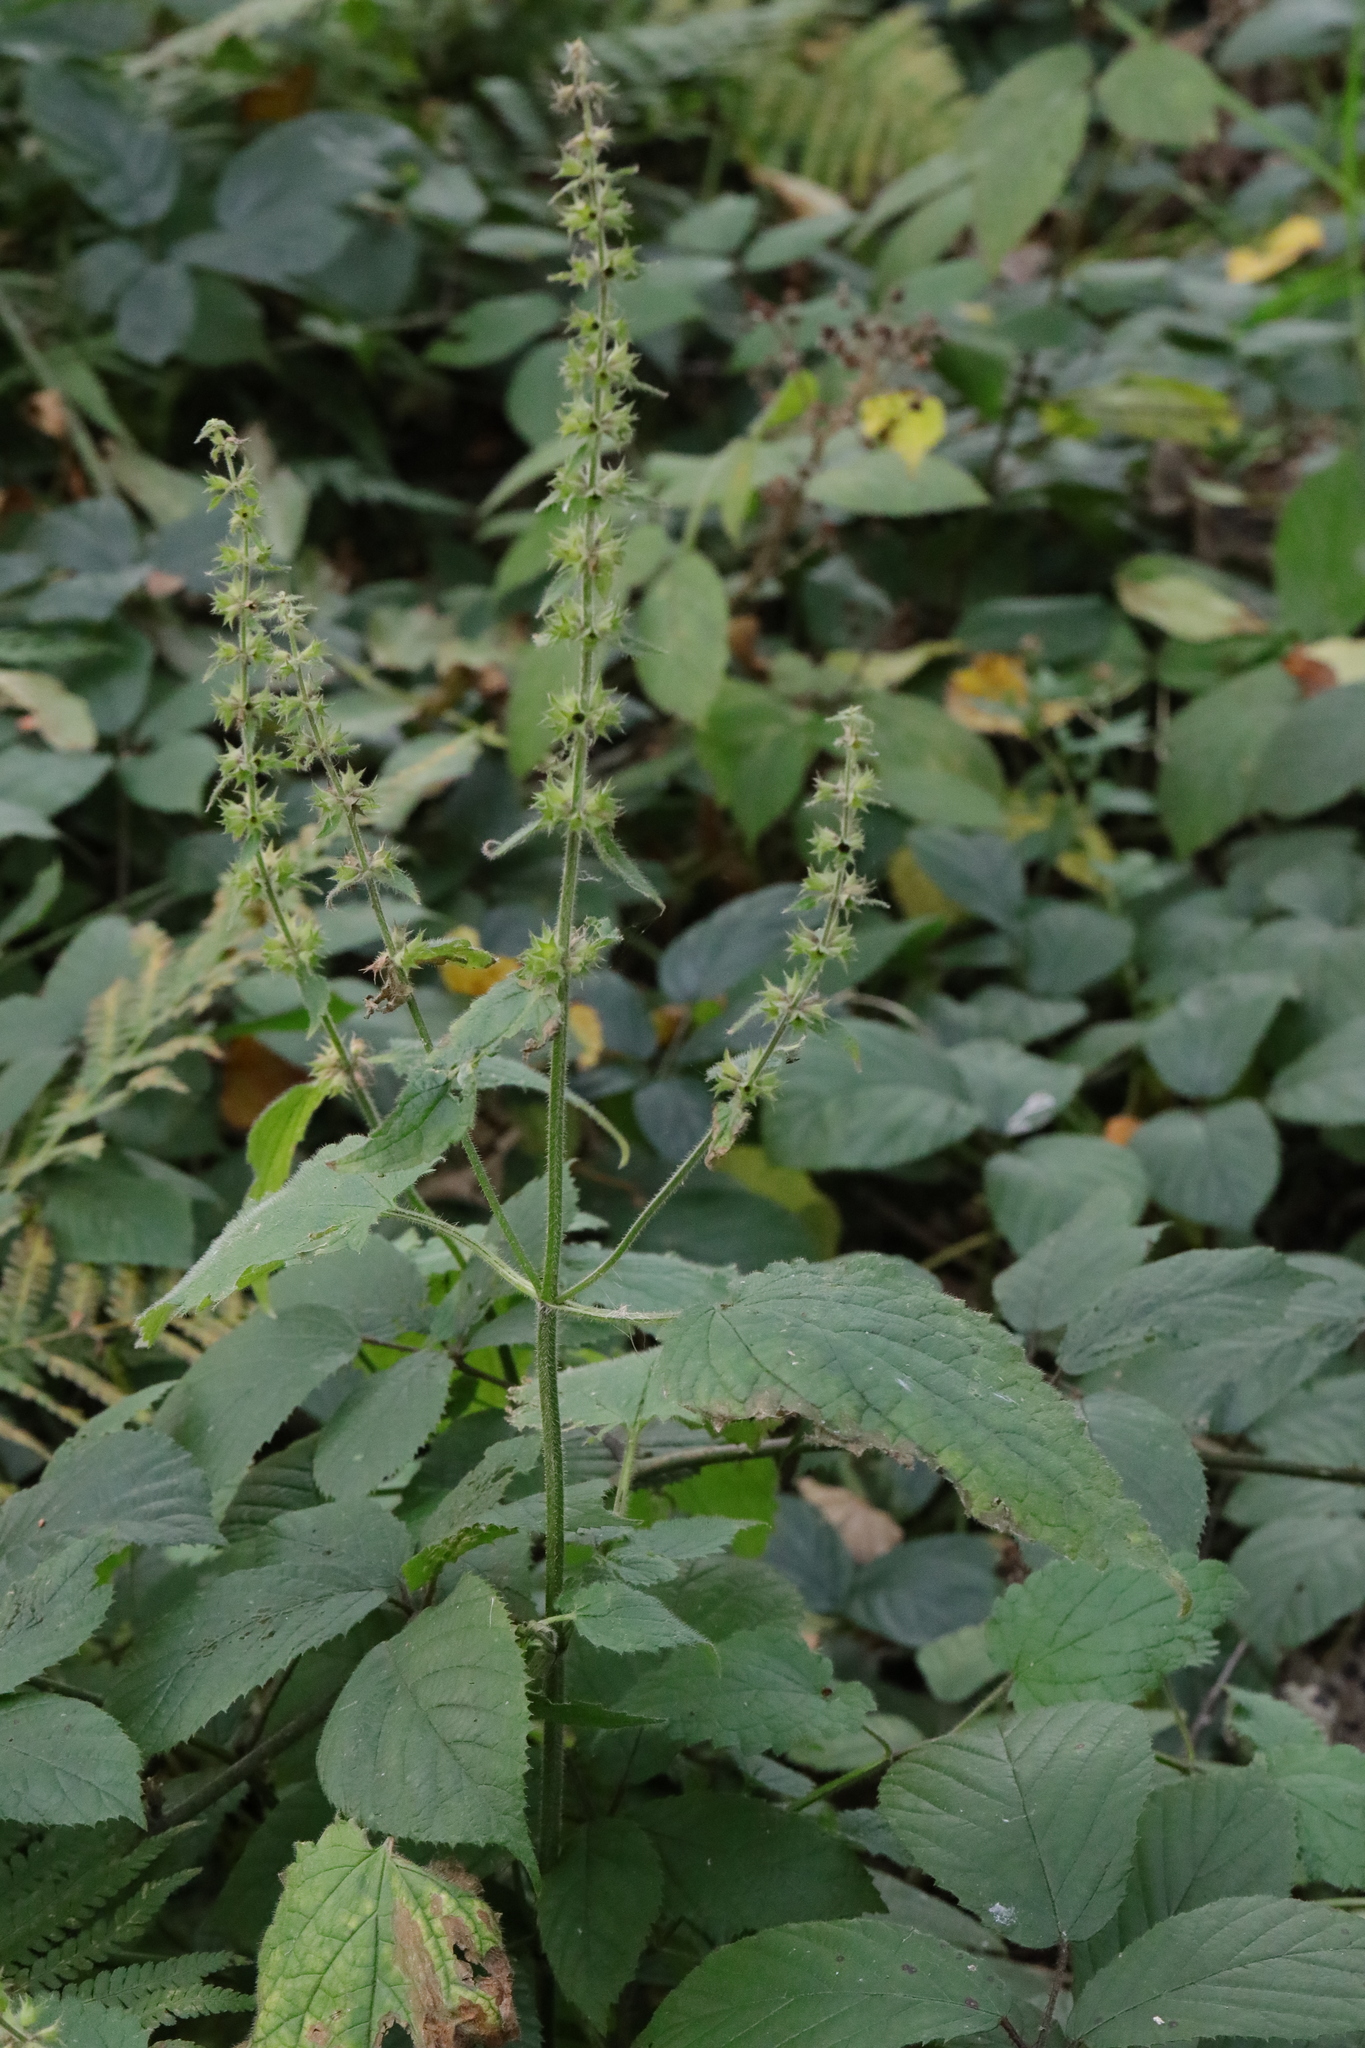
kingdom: Plantae
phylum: Tracheophyta
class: Magnoliopsida
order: Lamiales
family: Lamiaceae
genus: Stachys
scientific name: Stachys sylvatica
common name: Hedge woundwort
